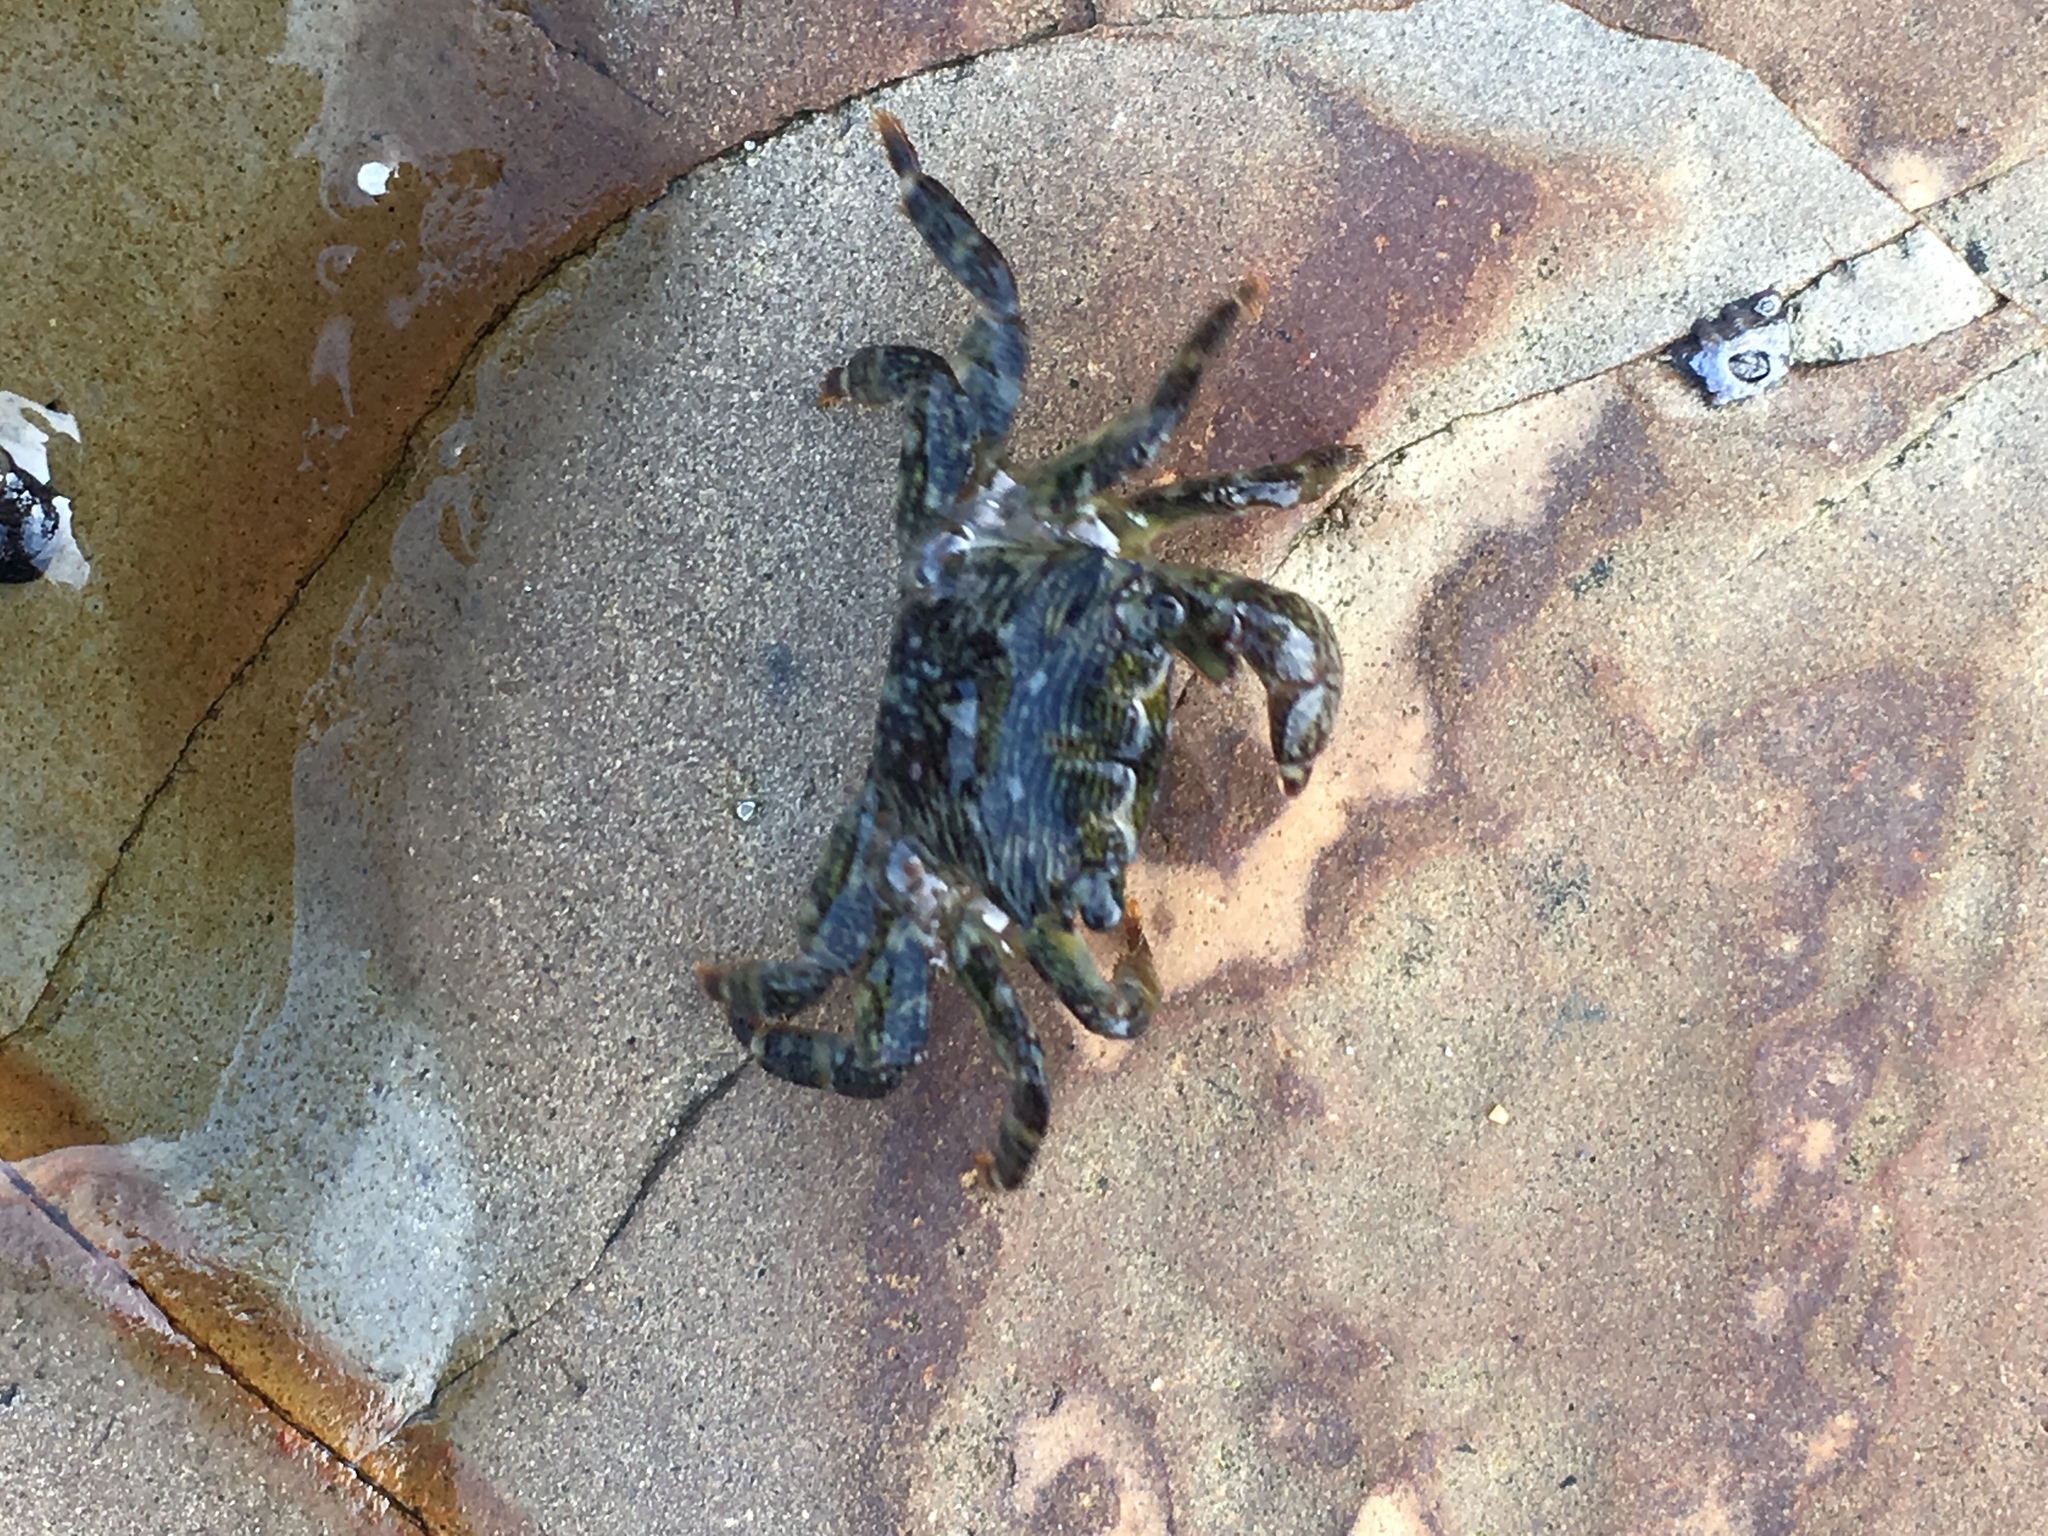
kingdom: Animalia
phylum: Arthropoda
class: Malacostraca
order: Decapoda
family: Grapsidae
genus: Pachygrapsus
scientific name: Pachygrapsus crassipes
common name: Striped shore crab
